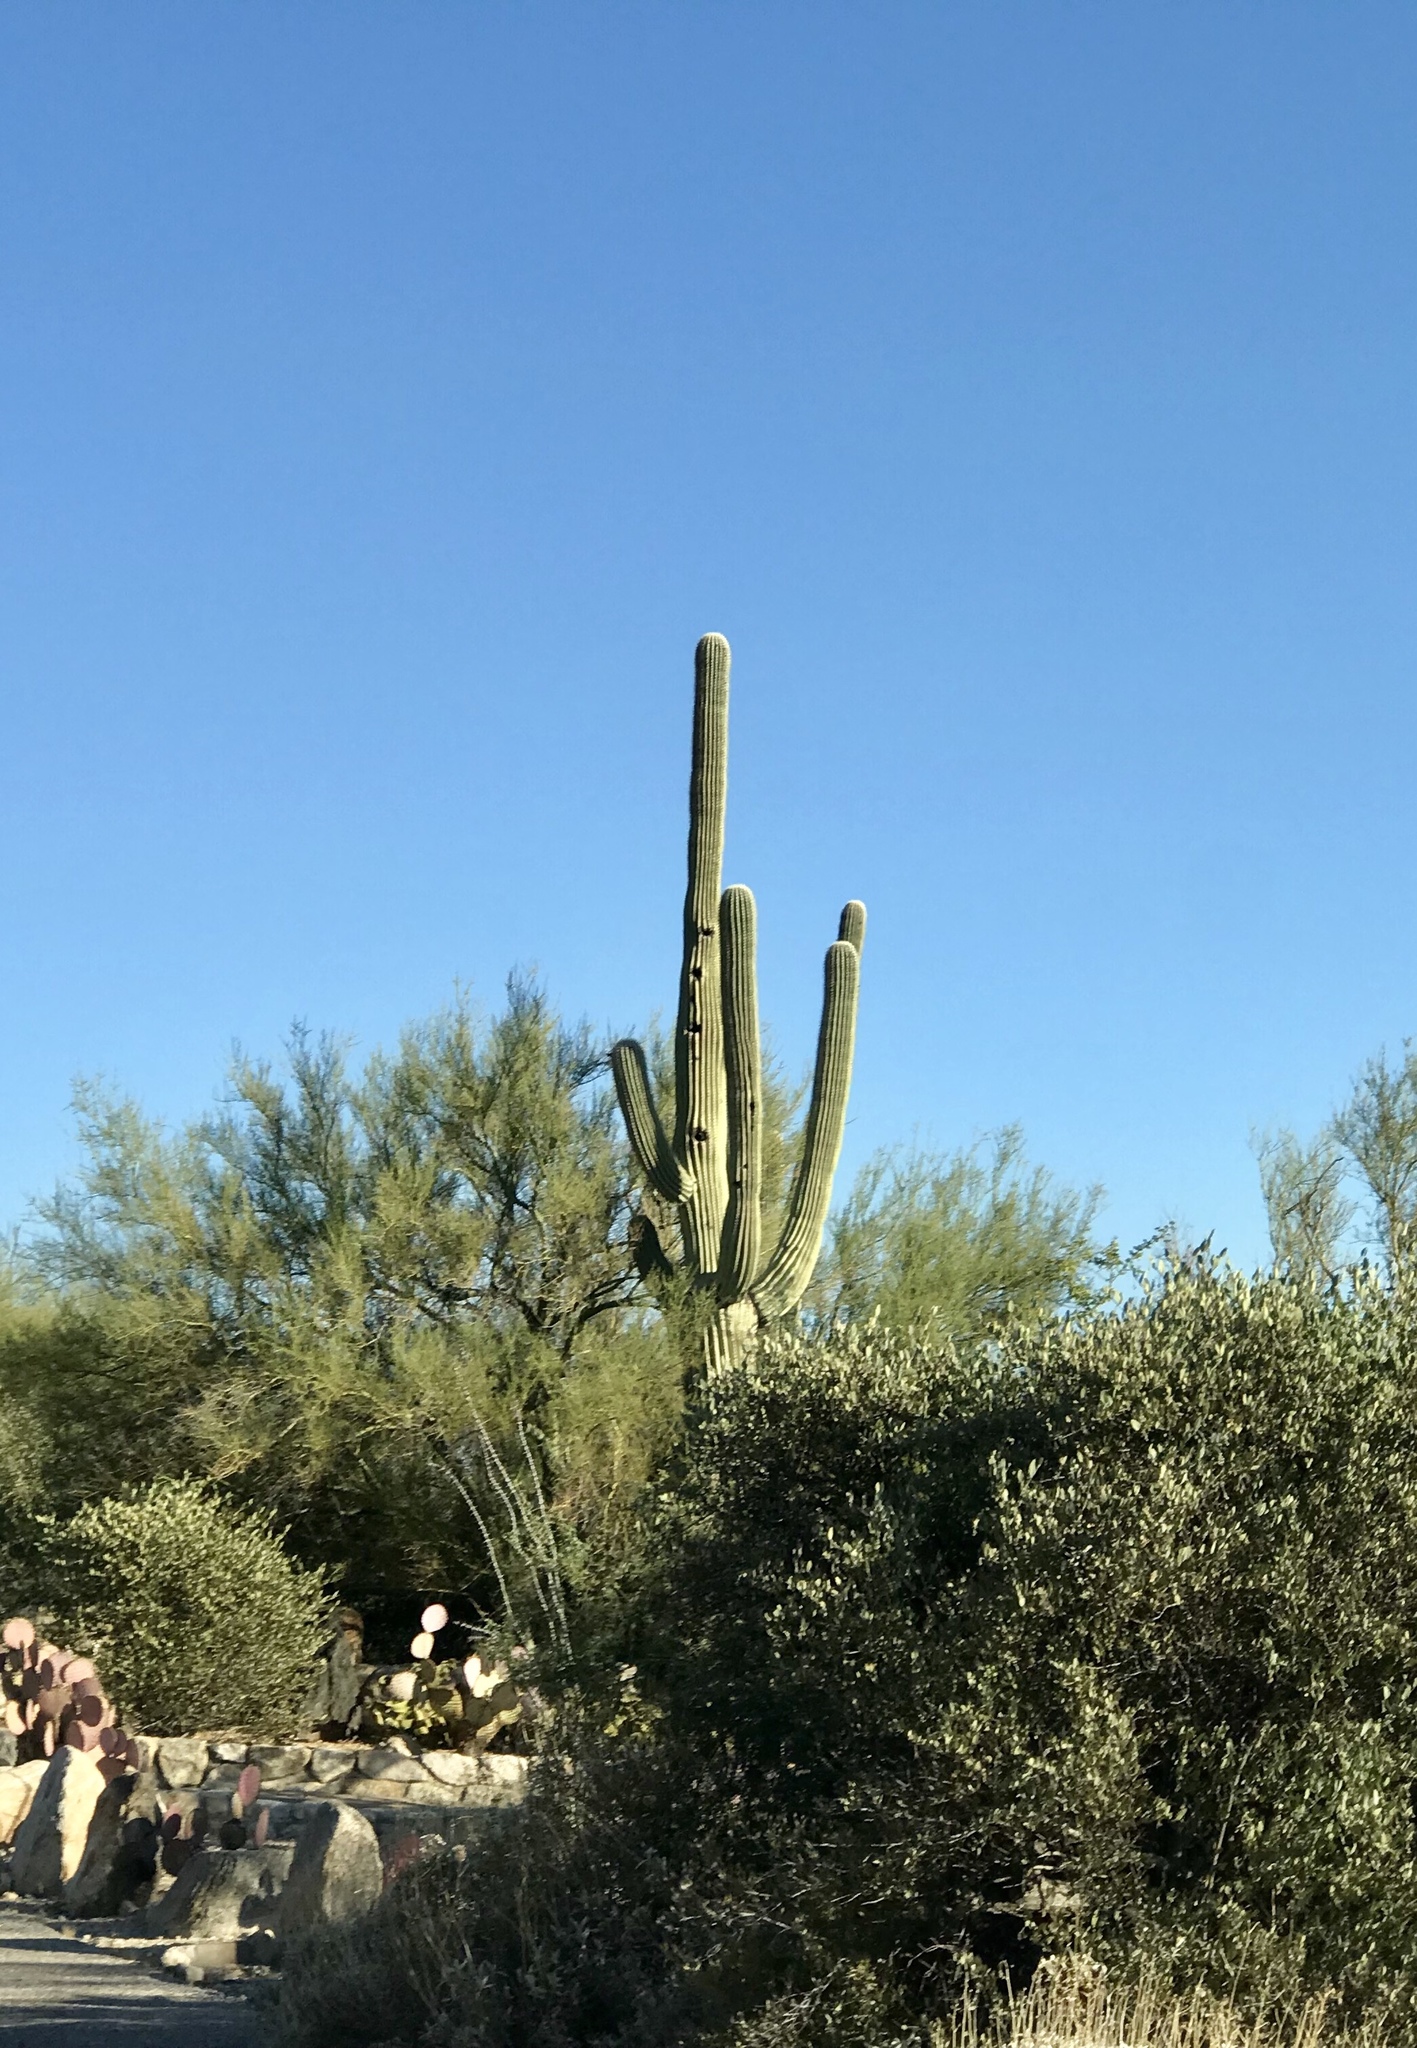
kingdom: Plantae
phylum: Tracheophyta
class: Magnoliopsida
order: Caryophyllales
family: Cactaceae
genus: Carnegiea
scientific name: Carnegiea gigantea
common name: Saguaro
